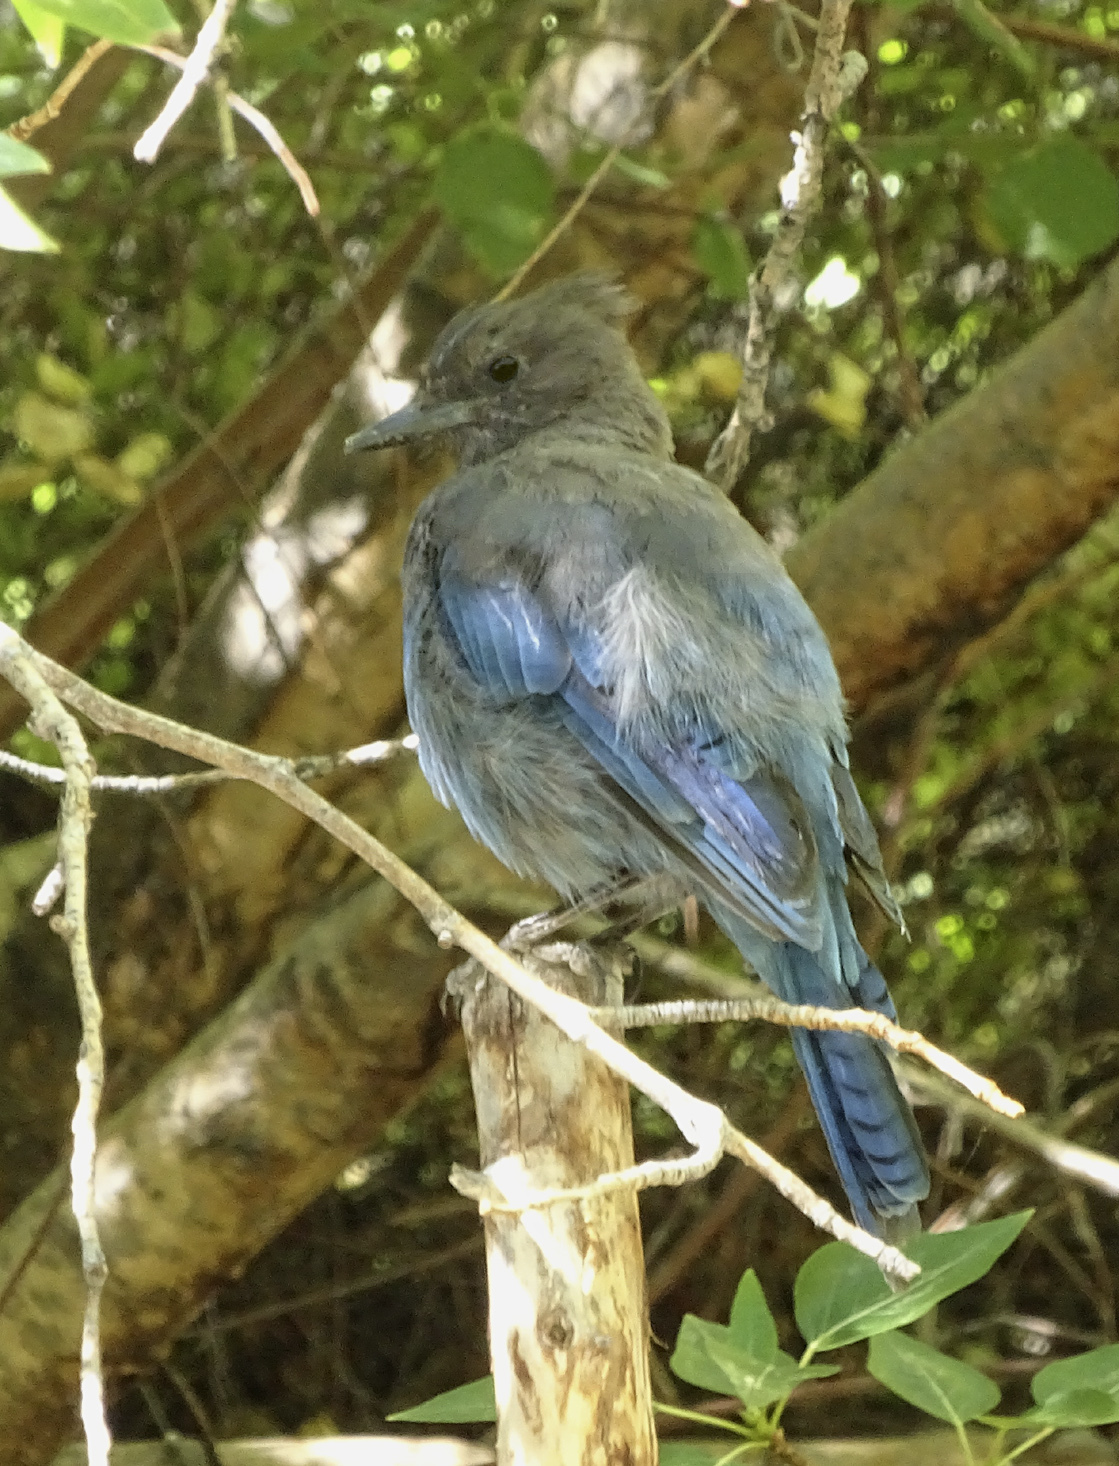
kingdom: Animalia
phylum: Chordata
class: Aves
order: Passeriformes
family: Corvidae
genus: Cyanocitta
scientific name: Cyanocitta stelleri
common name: Steller's jay
